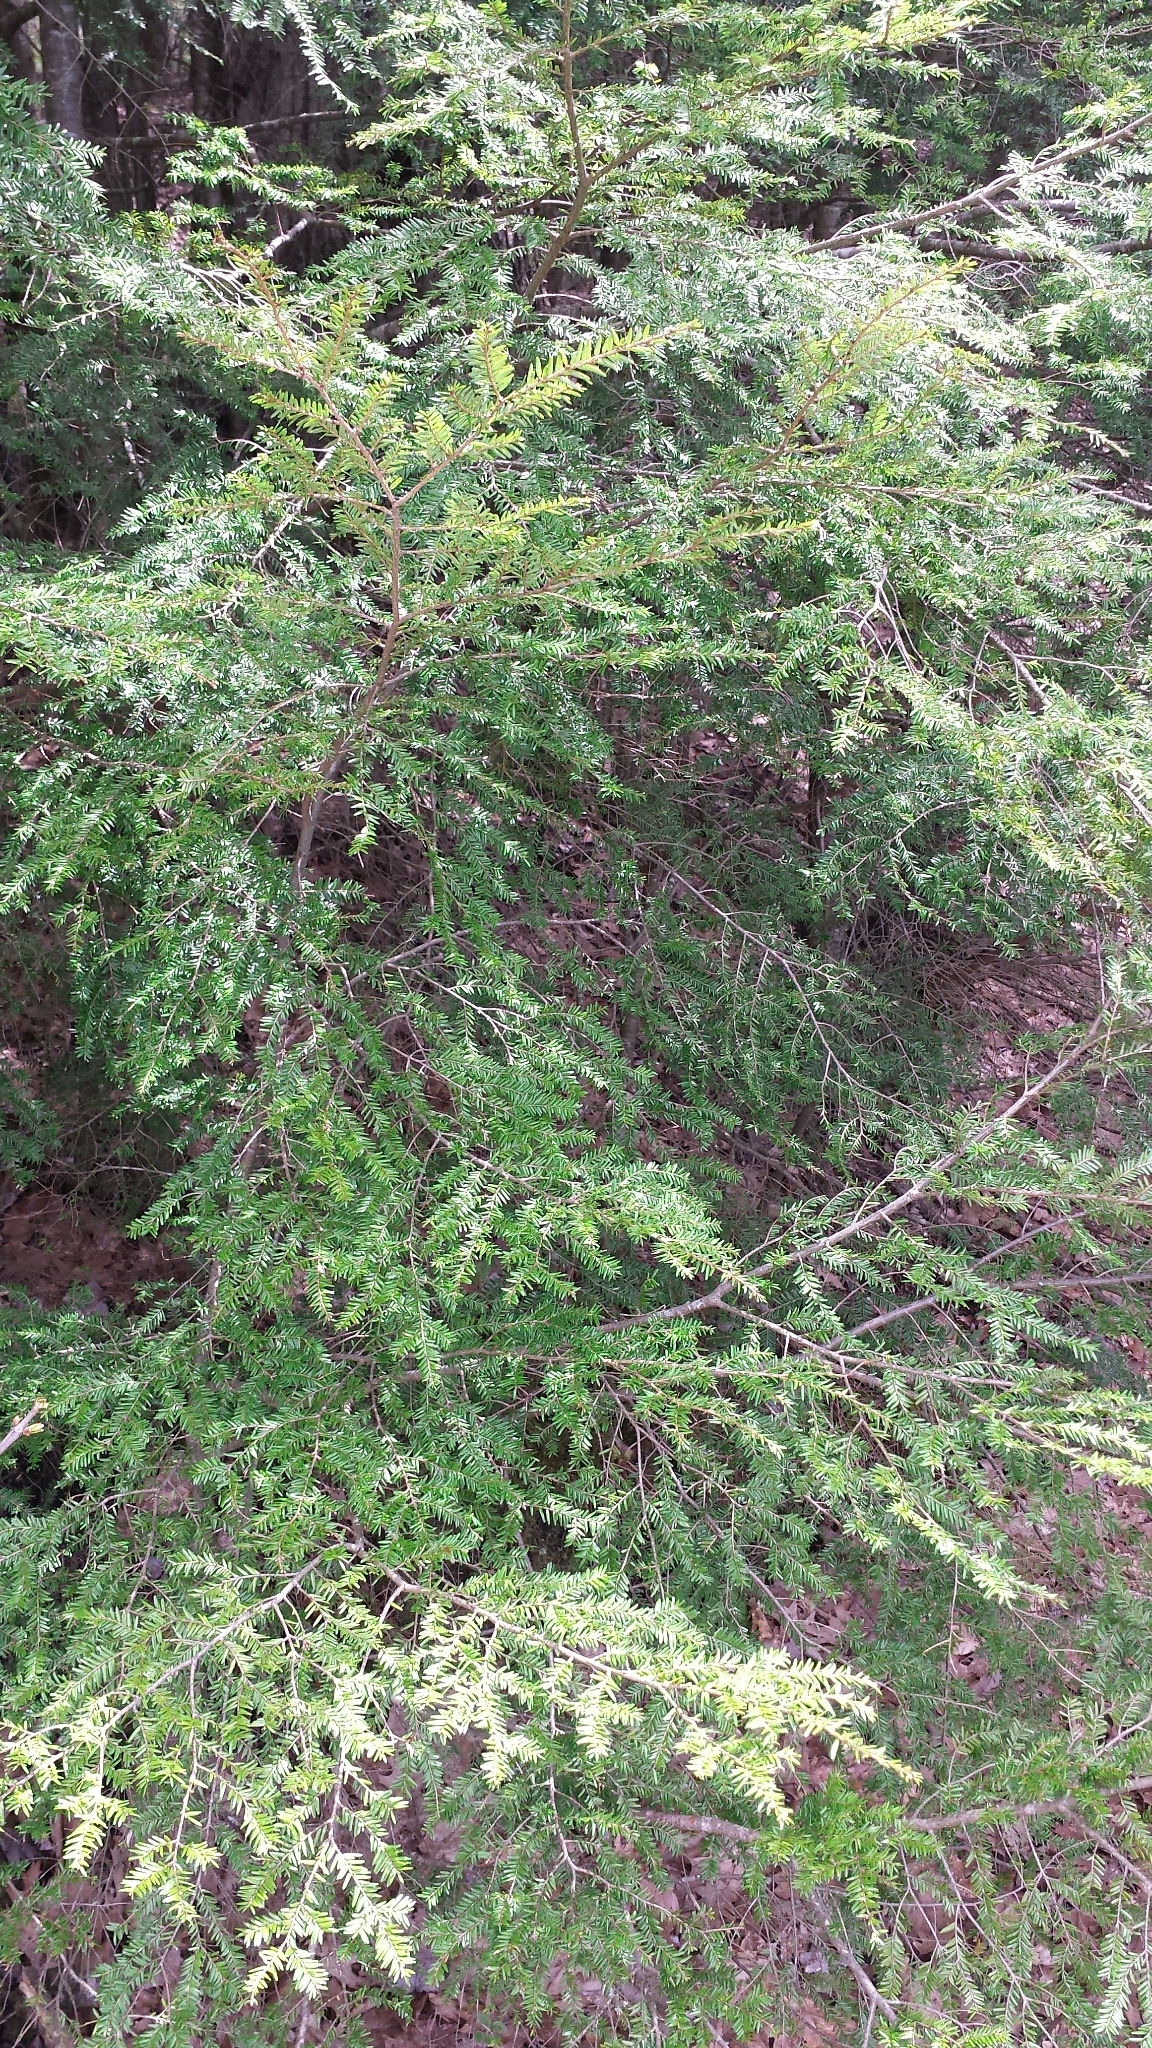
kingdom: Plantae
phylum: Tracheophyta
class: Pinopsida
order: Pinales
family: Pinaceae
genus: Tsuga
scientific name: Tsuga canadensis
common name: Eastern hemlock
